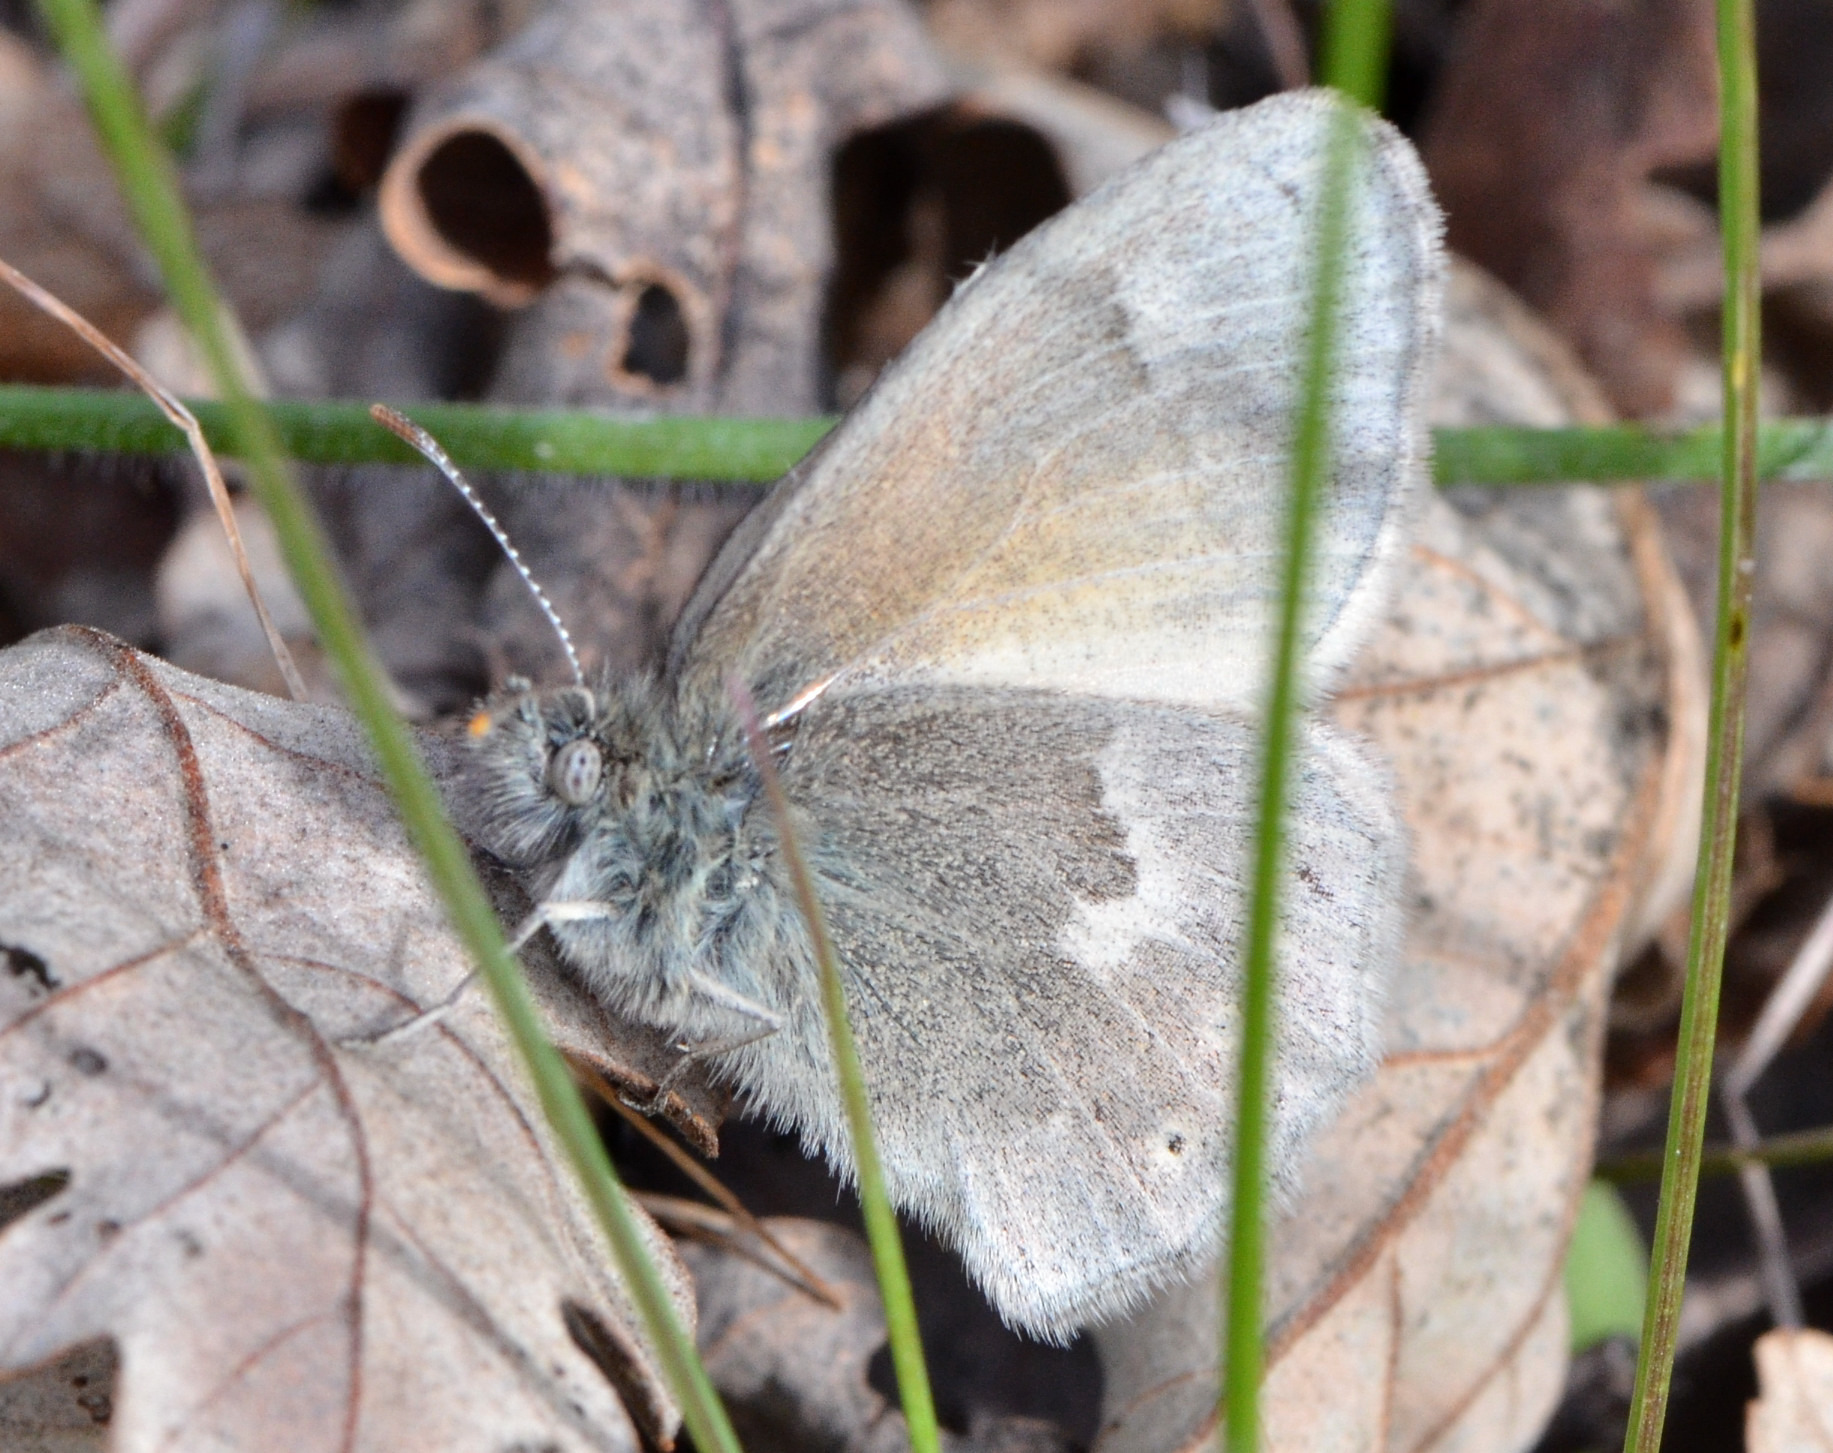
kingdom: Animalia
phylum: Arthropoda
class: Insecta
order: Lepidoptera
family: Nymphalidae
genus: Coenonympha
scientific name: Coenonympha california
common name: Common ringlet
